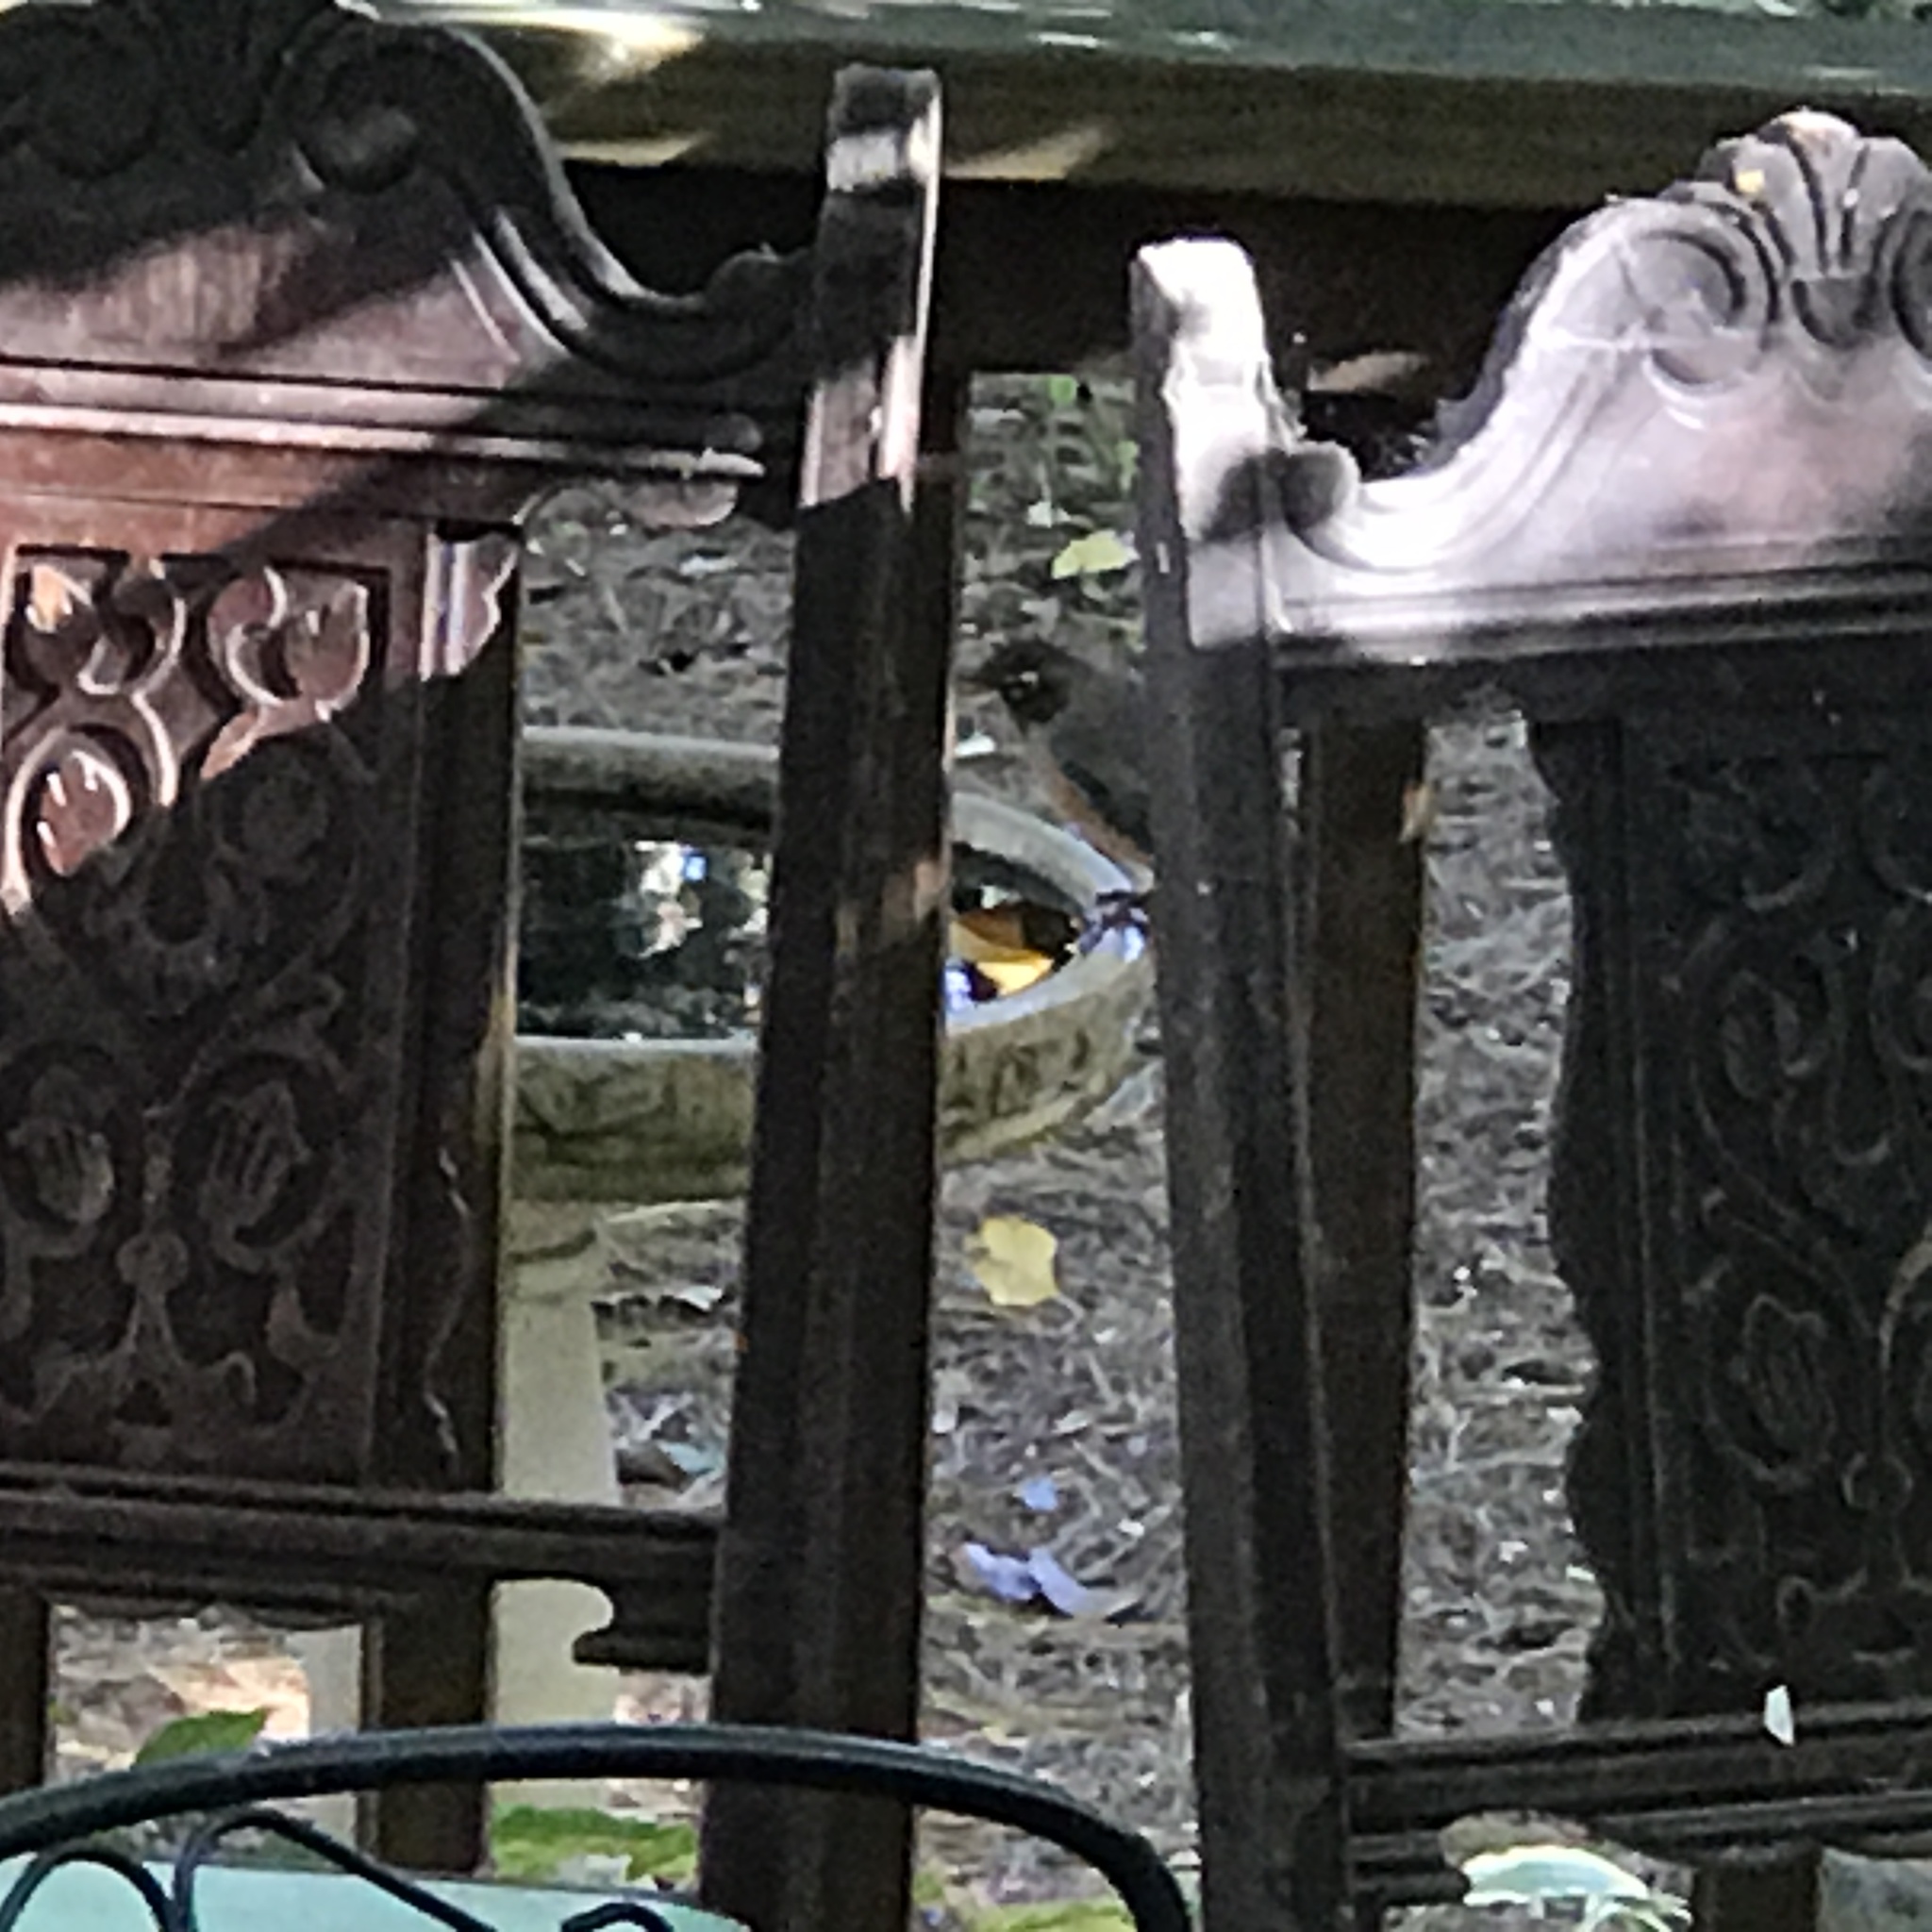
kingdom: Animalia
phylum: Chordata
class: Aves
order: Passeriformes
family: Turdidae
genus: Turdus
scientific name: Turdus migratorius
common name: American robin
